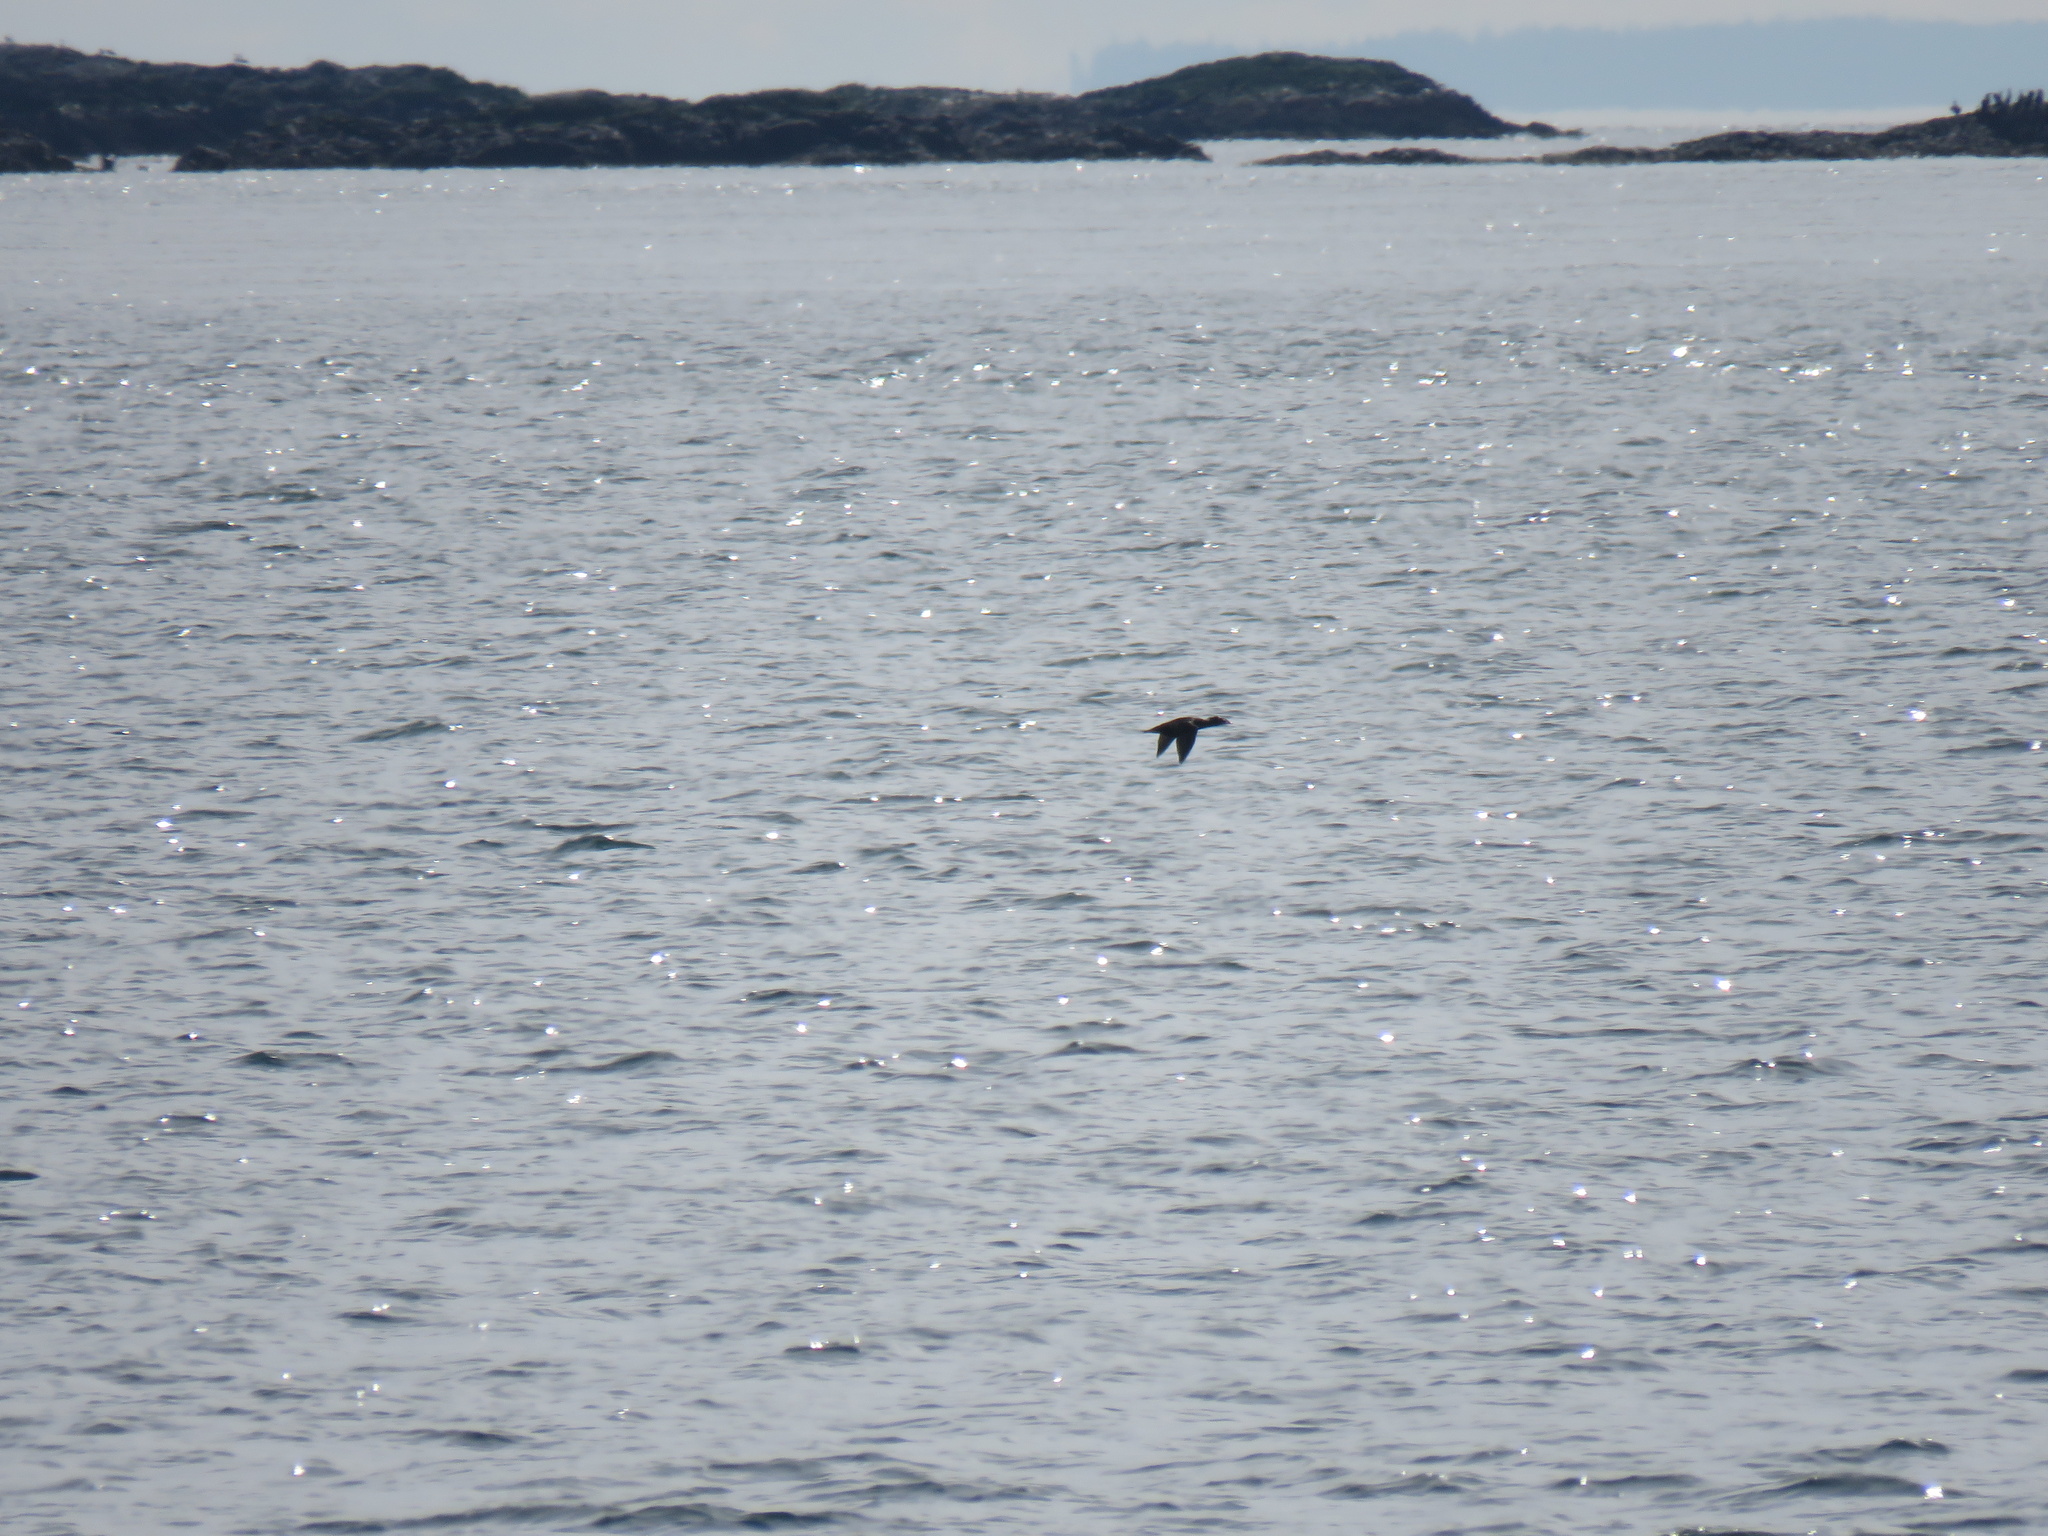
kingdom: Animalia
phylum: Chordata
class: Aves
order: Anseriformes
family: Anatidae
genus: Melanitta
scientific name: Melanitta perspicillata
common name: Surf scoter
